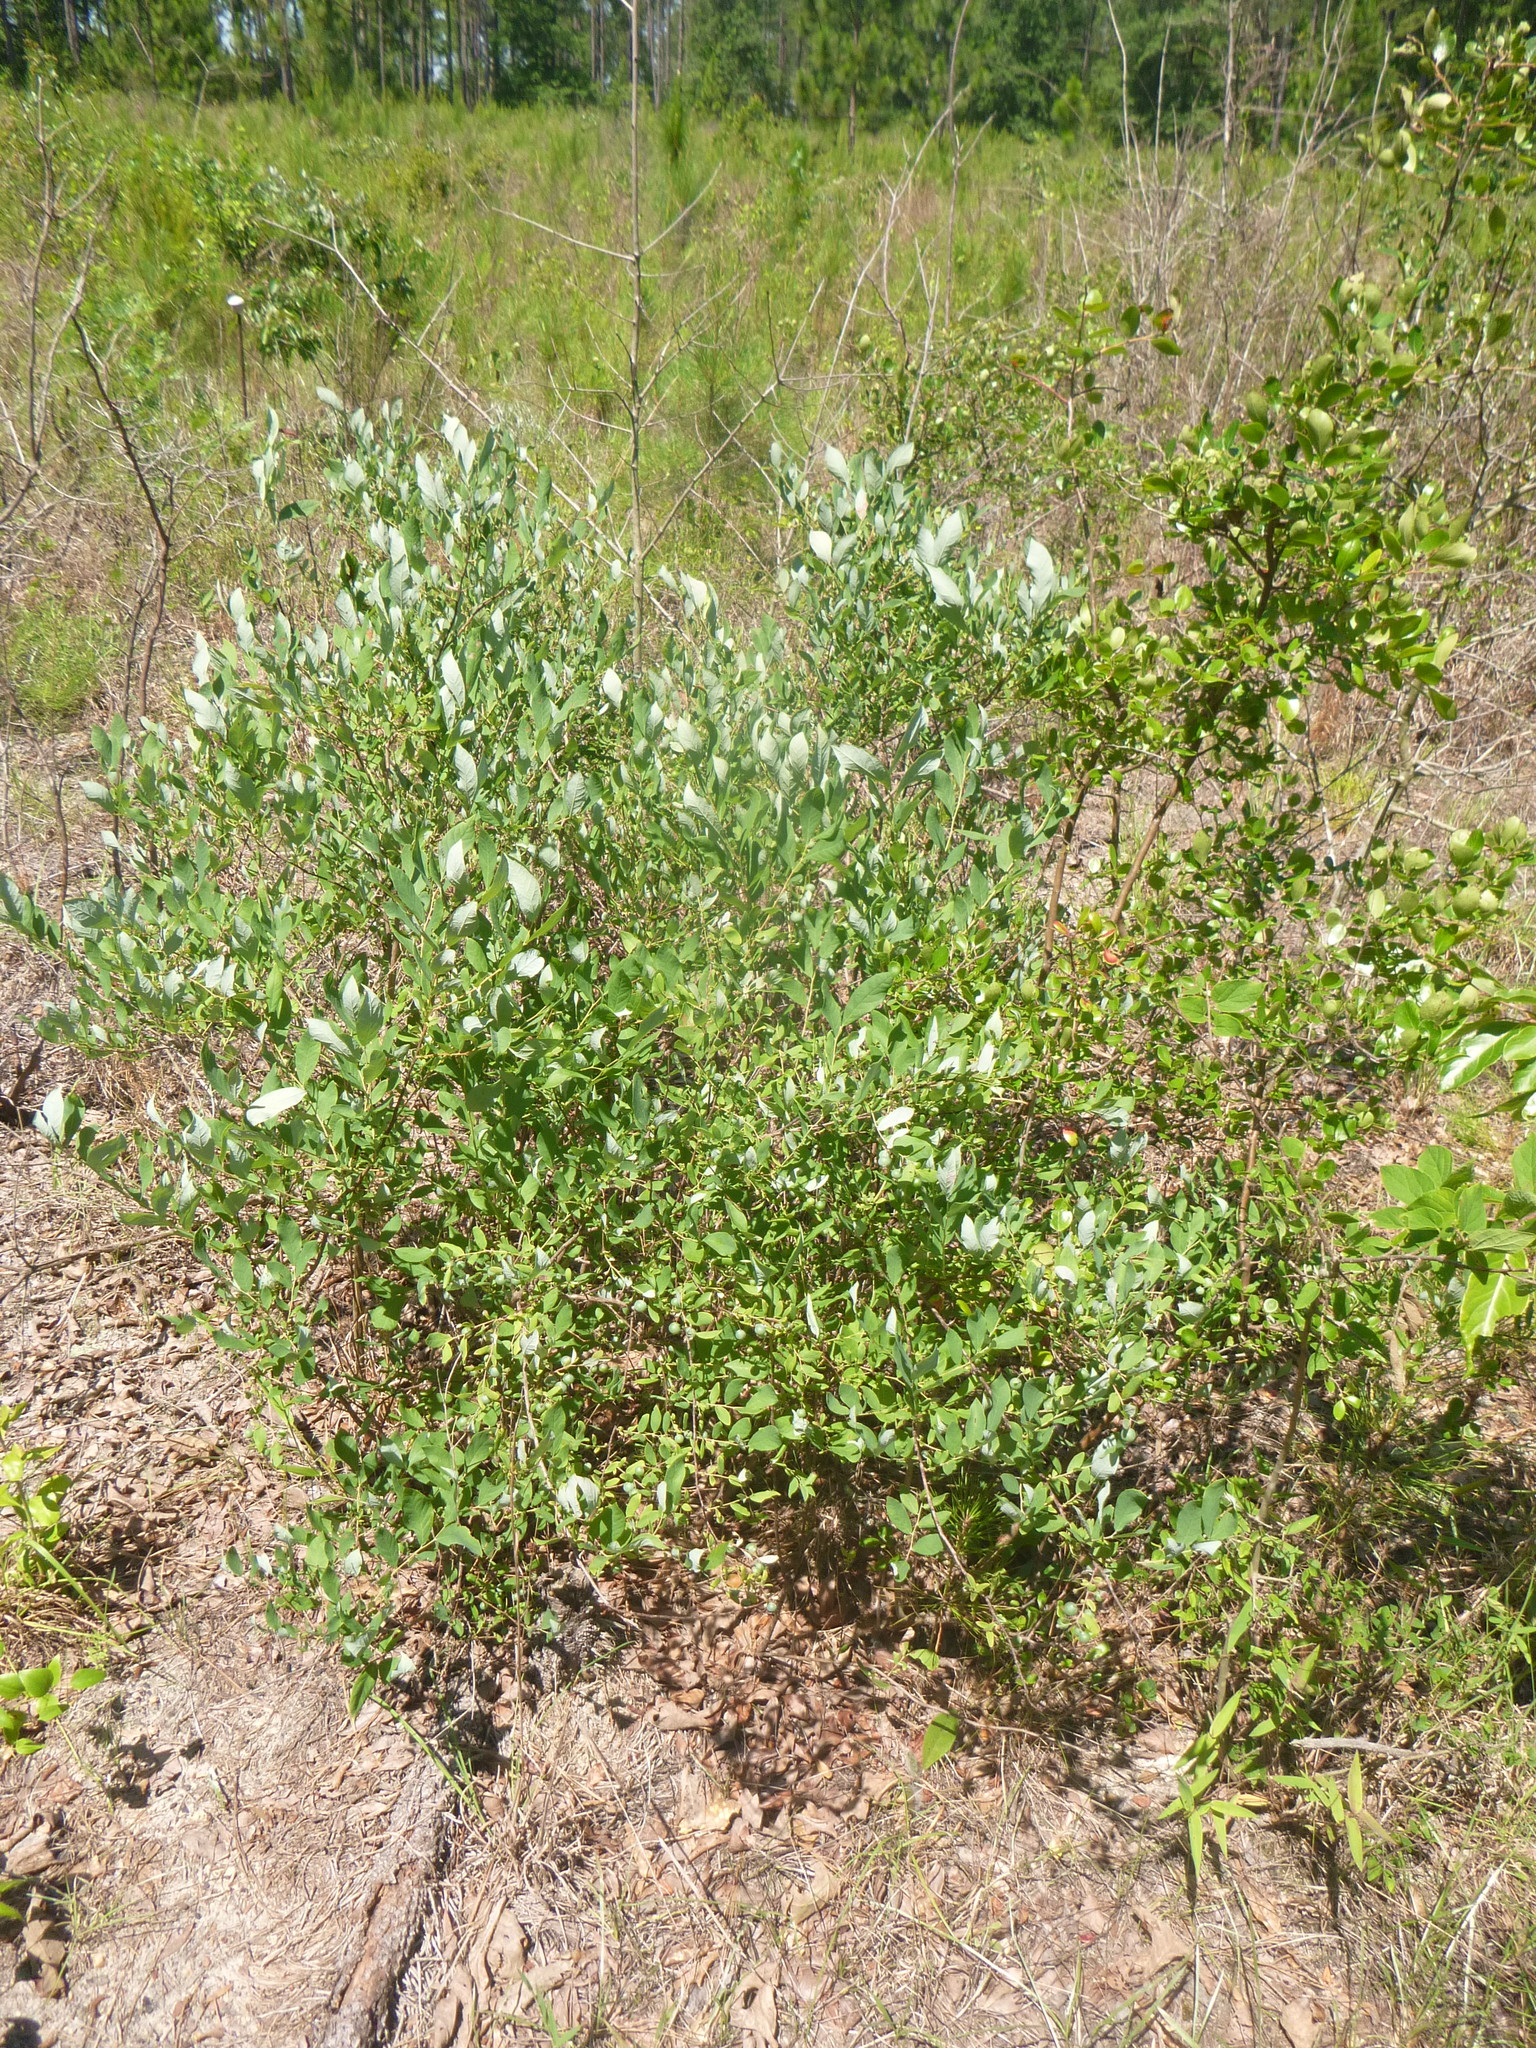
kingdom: Plantae
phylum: Tracheophyta
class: Magnoliopsida
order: Ericales
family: Ericaceae
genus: Vaccinium
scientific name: Vaccinium stamineum
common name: Deerberry
